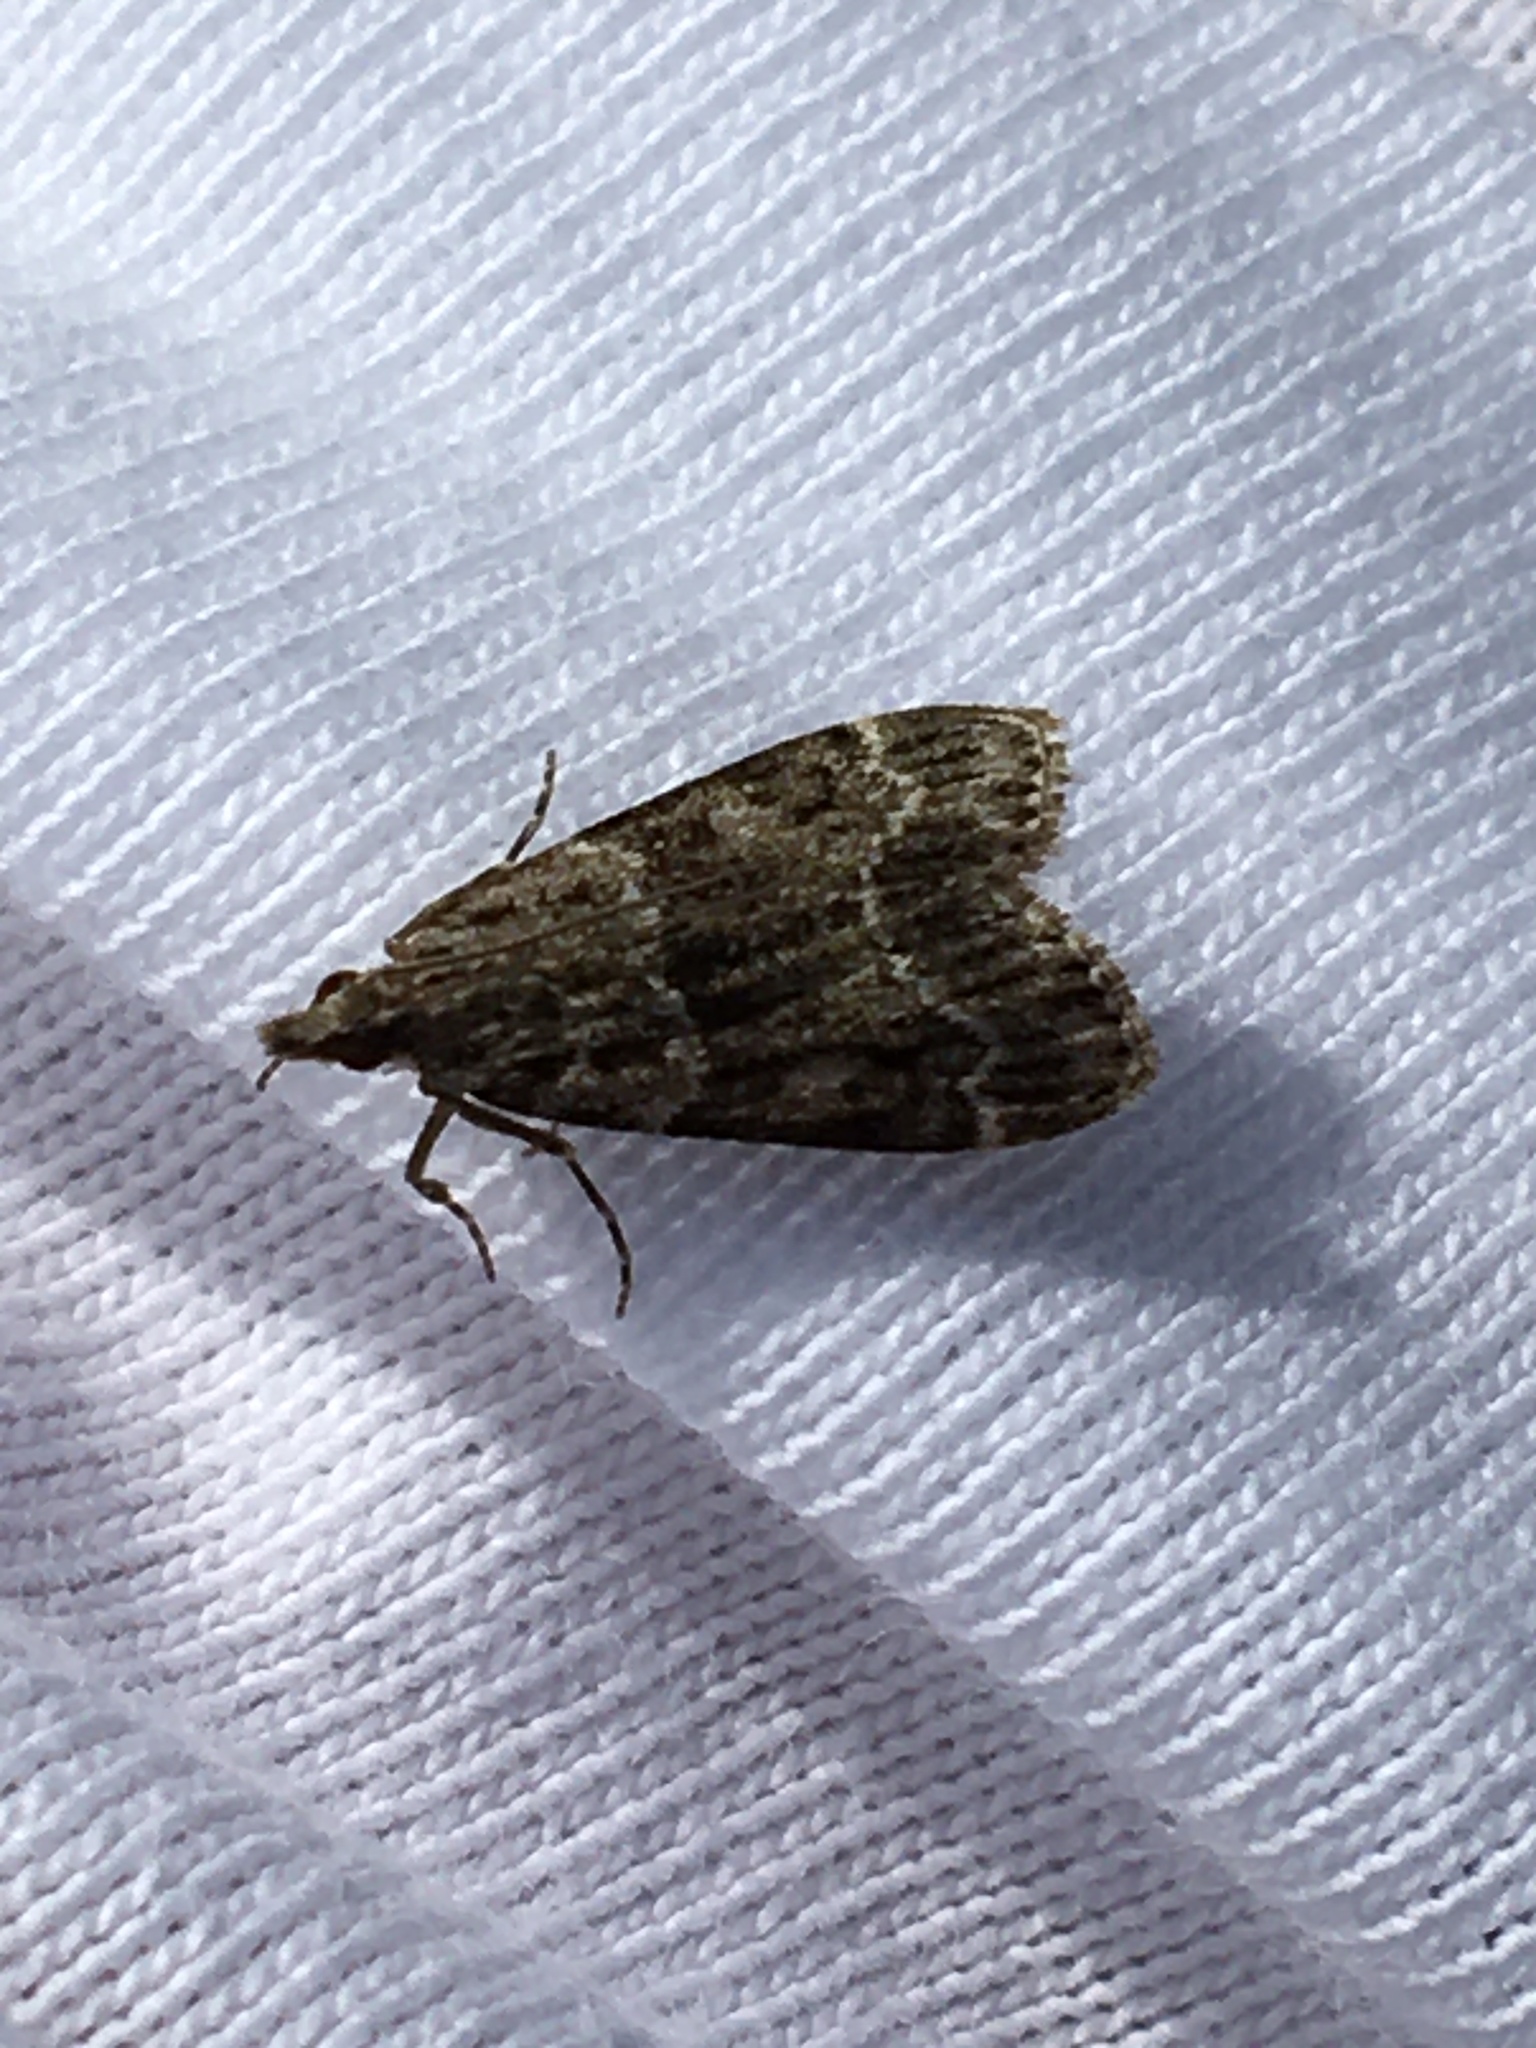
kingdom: Animalia
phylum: Arthropoda
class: Insecta
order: Lepidoptera
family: Crambidae
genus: Eudonia
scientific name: Eudonia mercurella
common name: Small grey
